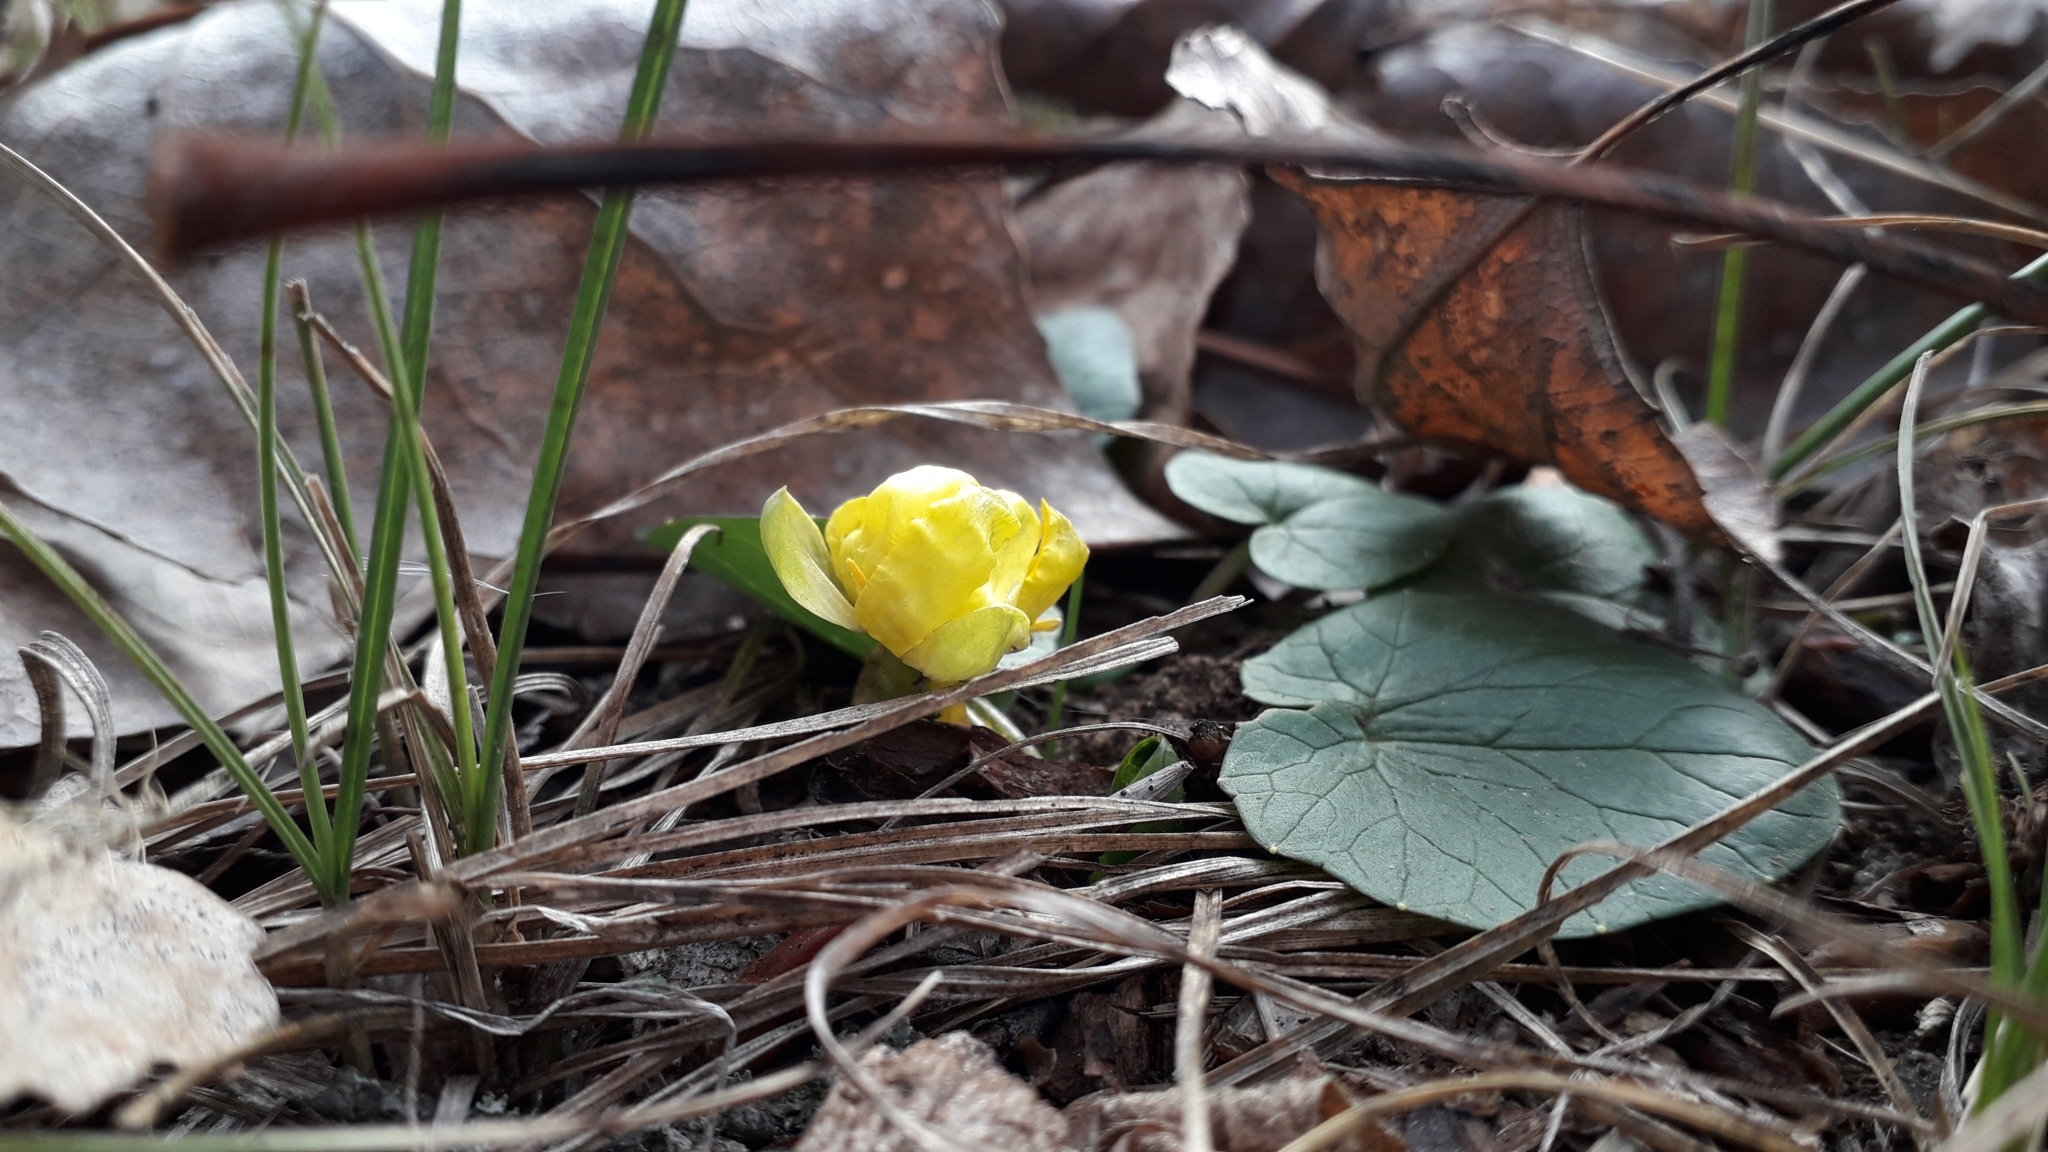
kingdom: Plantae
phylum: Tracheophyta
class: Magnoliopsida
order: Ranunculales
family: Ranunculaceae
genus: Ficaria
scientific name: Ficaria verna
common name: Lesser celandine
